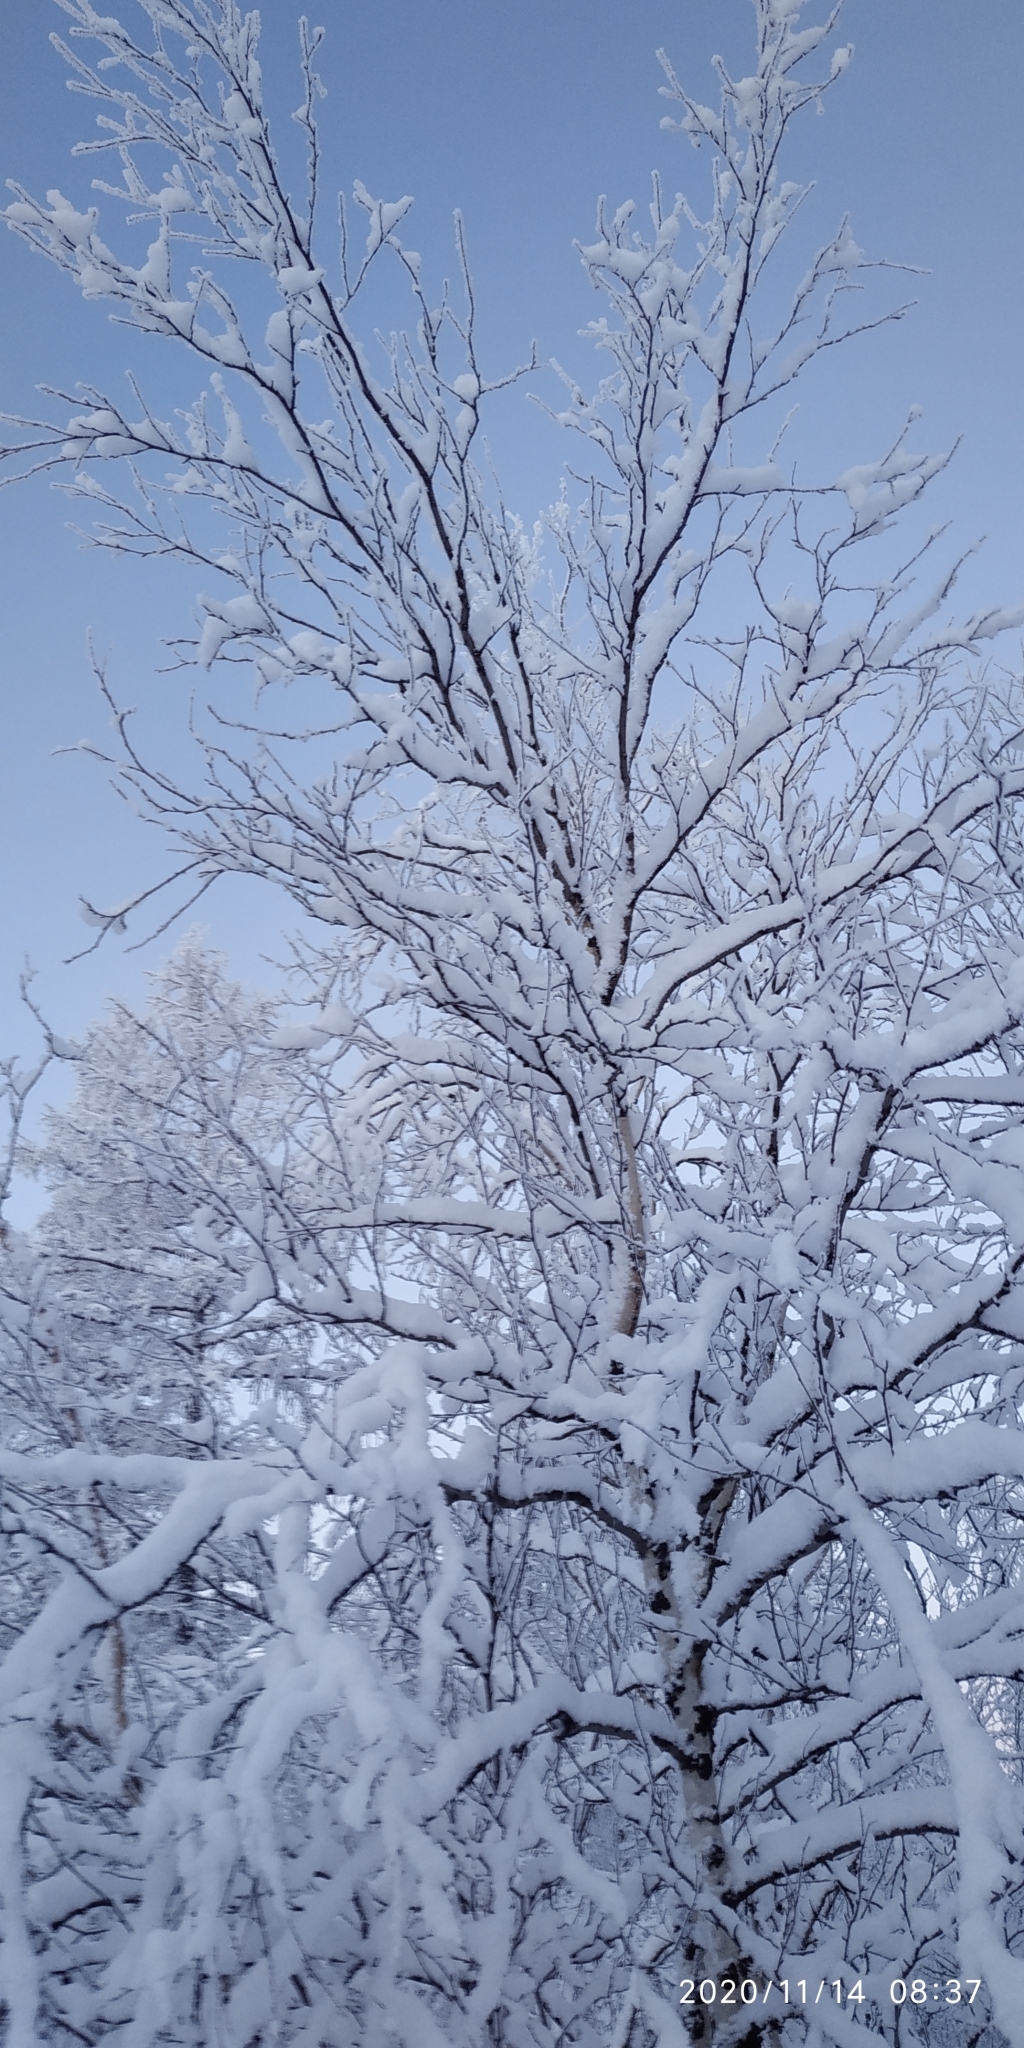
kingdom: Plantae
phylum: Tracheophyta
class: Magnoliopsida
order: Fagales
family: Betulaceae
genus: Betula
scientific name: Betula pubescens
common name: Downy birch
